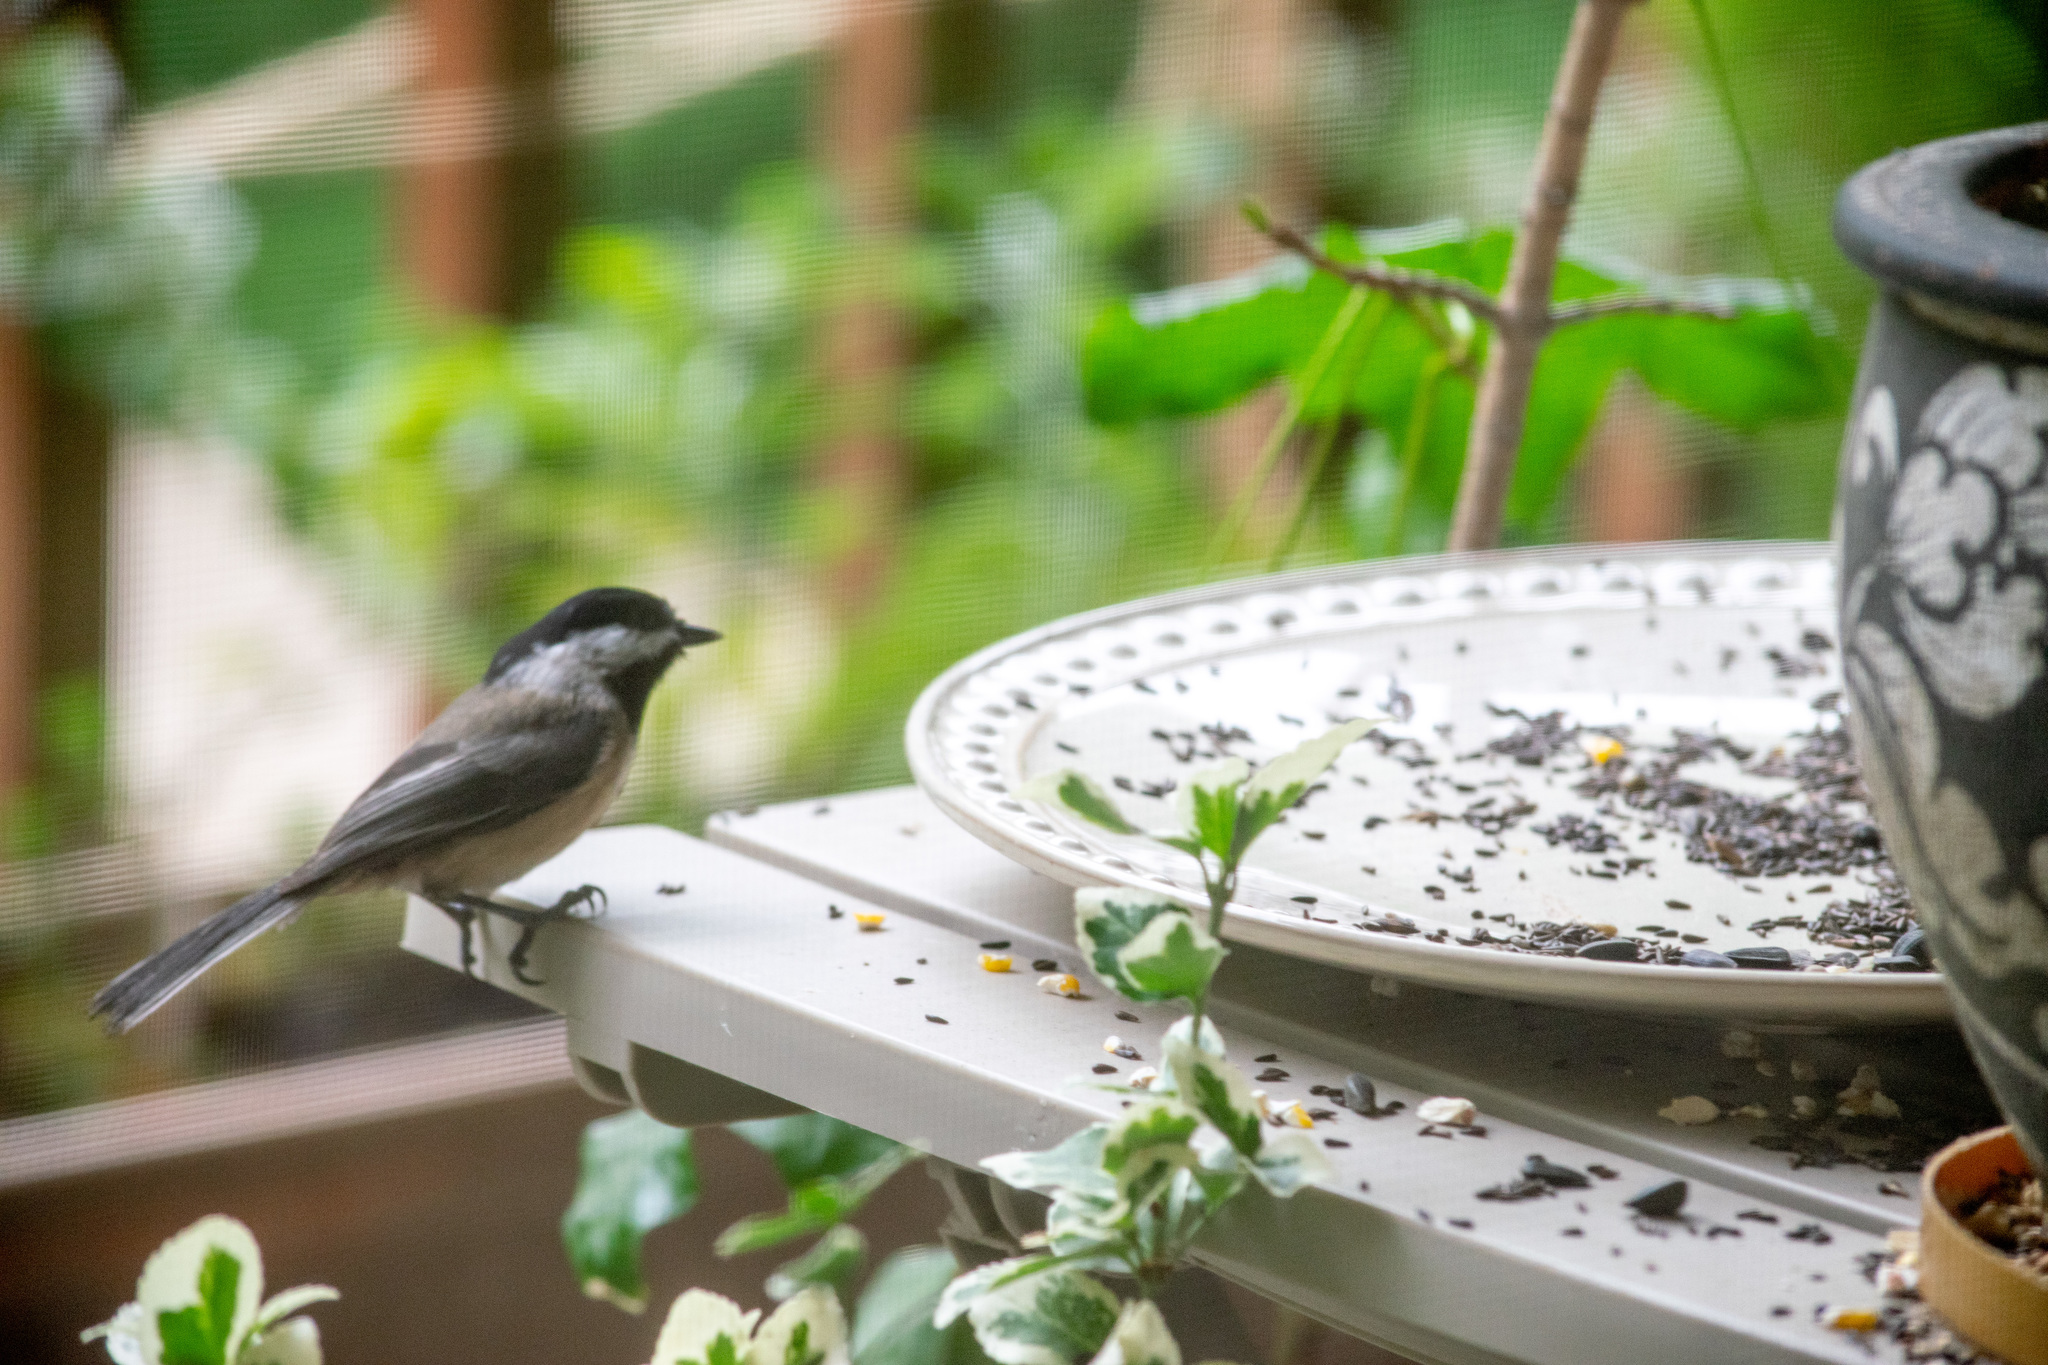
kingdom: Animalia
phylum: Chordata
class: Aves
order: Passeriformes
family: Paridae
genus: Poecile
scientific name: Poecile atricapillus
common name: Black-capped chickadee
